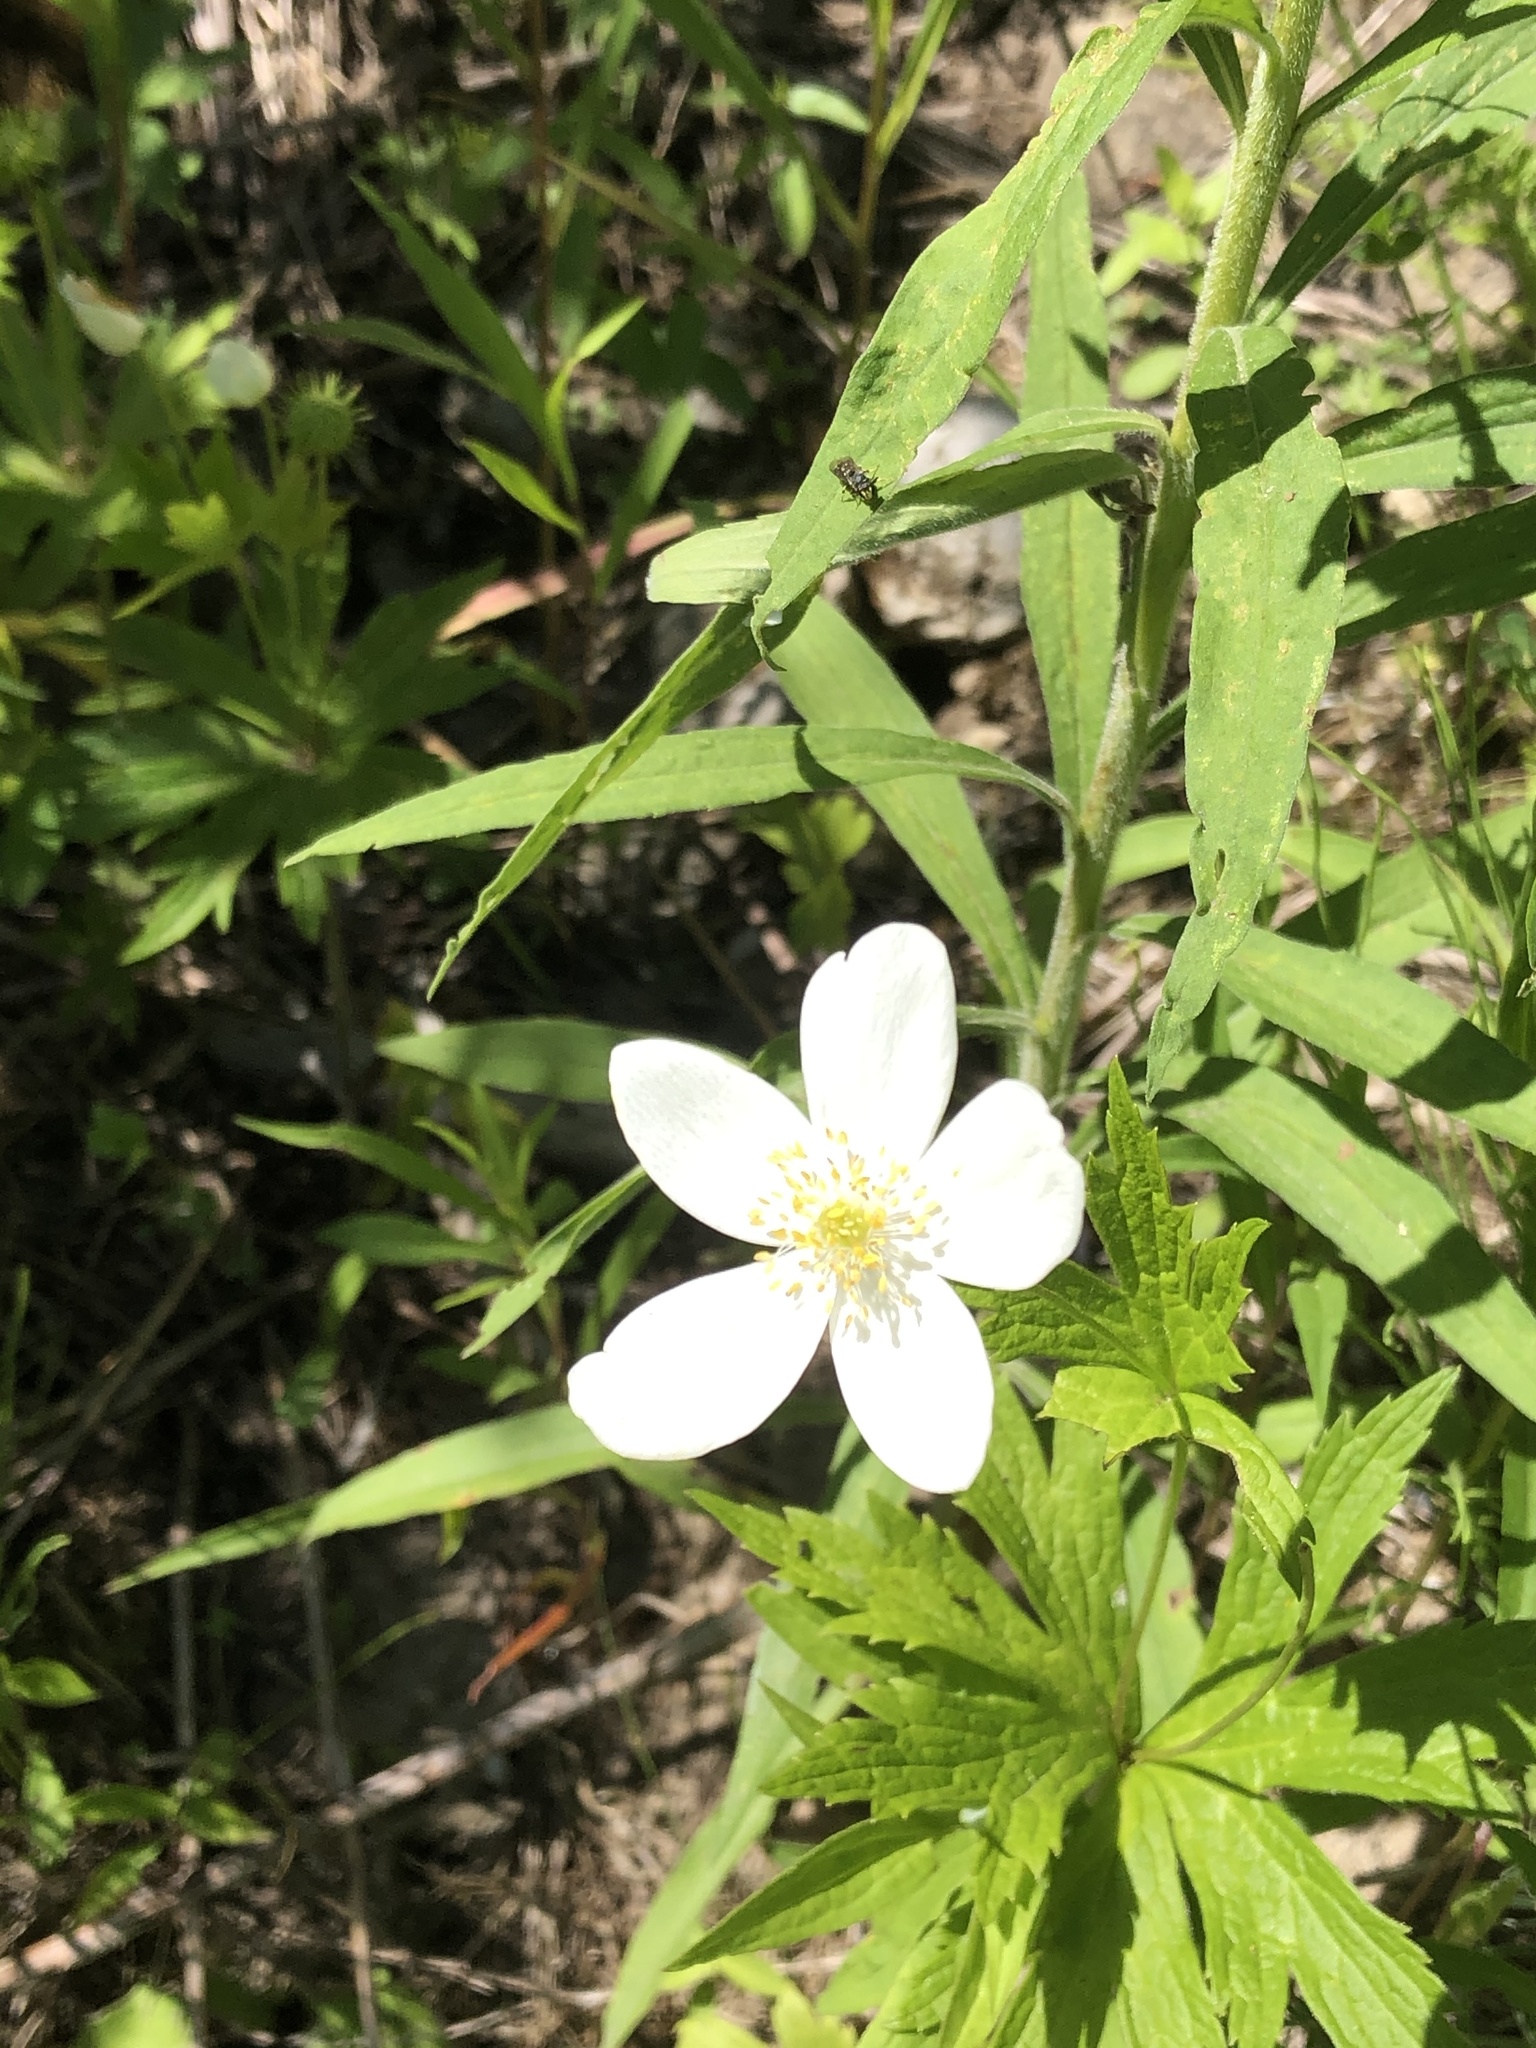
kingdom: Plantae
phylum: Tracheophyta
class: Magnoliopsida
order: Ranunculales
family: Ranunculaceae
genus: Anemonastrum
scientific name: Anemonastrum canadense
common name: Canada anemone
